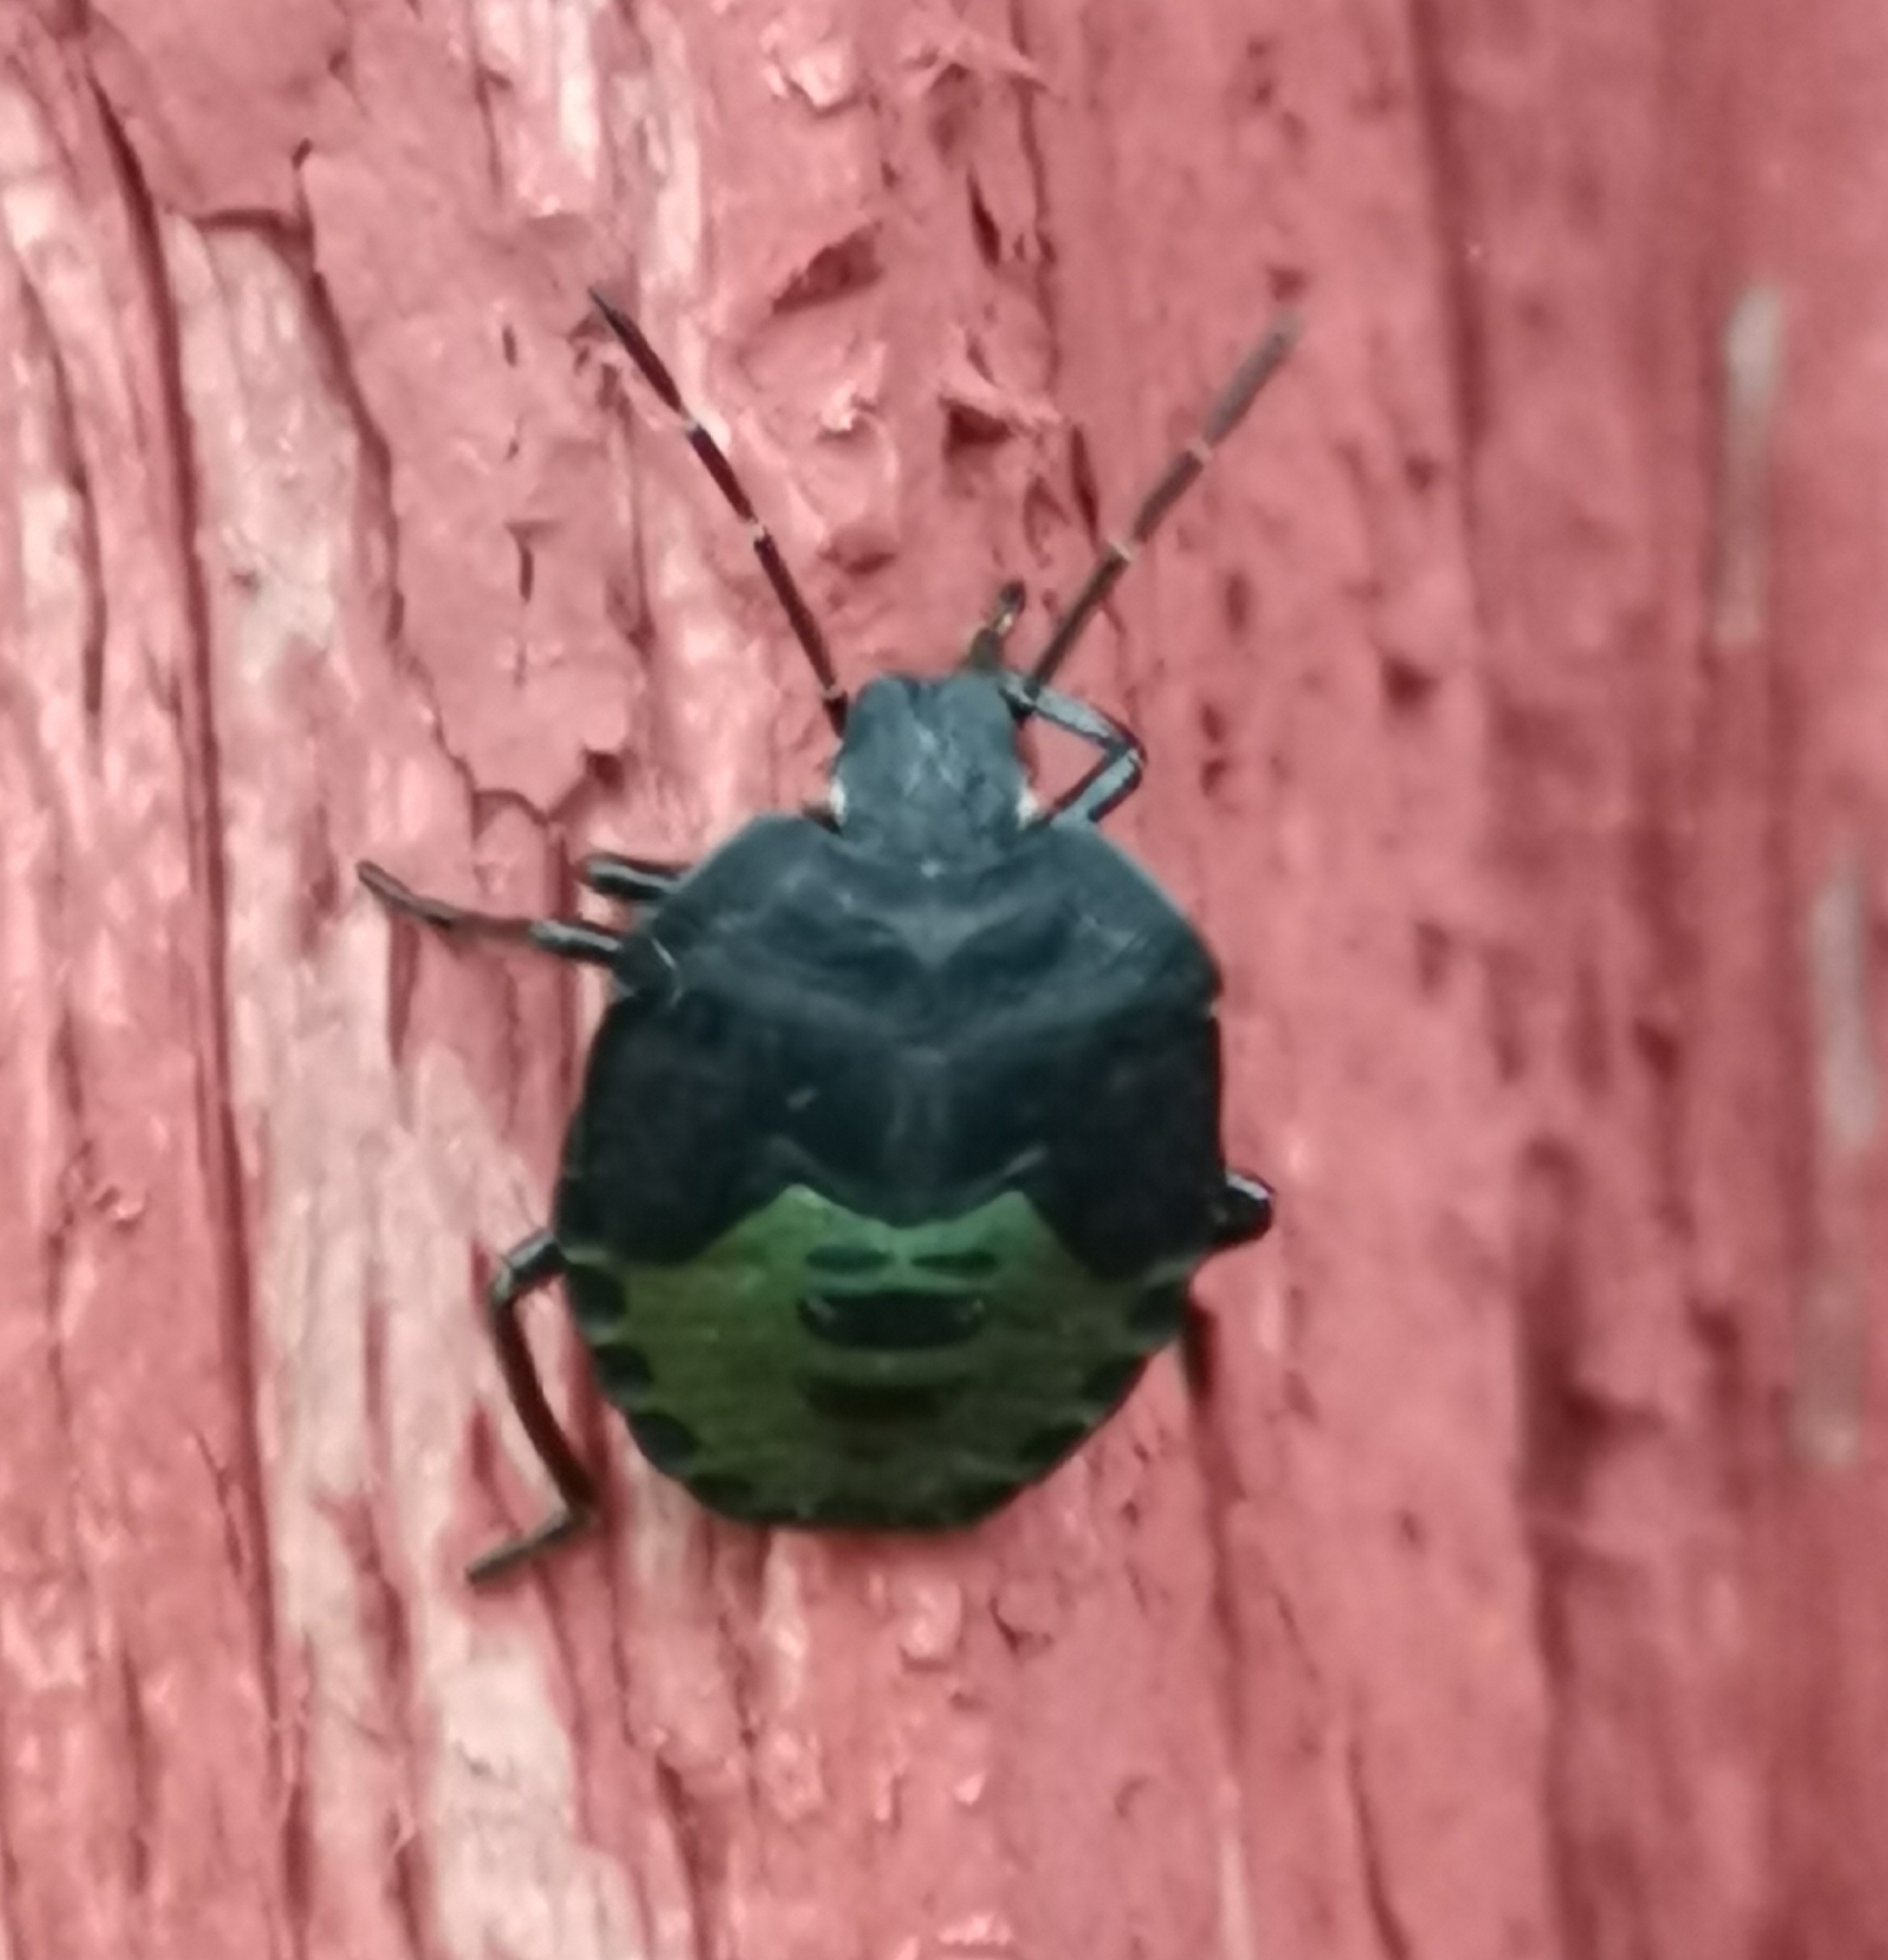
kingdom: Animalia
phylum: Arthropoda
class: Insecta
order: Hemiptera
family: Pentatomidae
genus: Palomena
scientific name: Palomena prasina
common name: Green shieldbug
